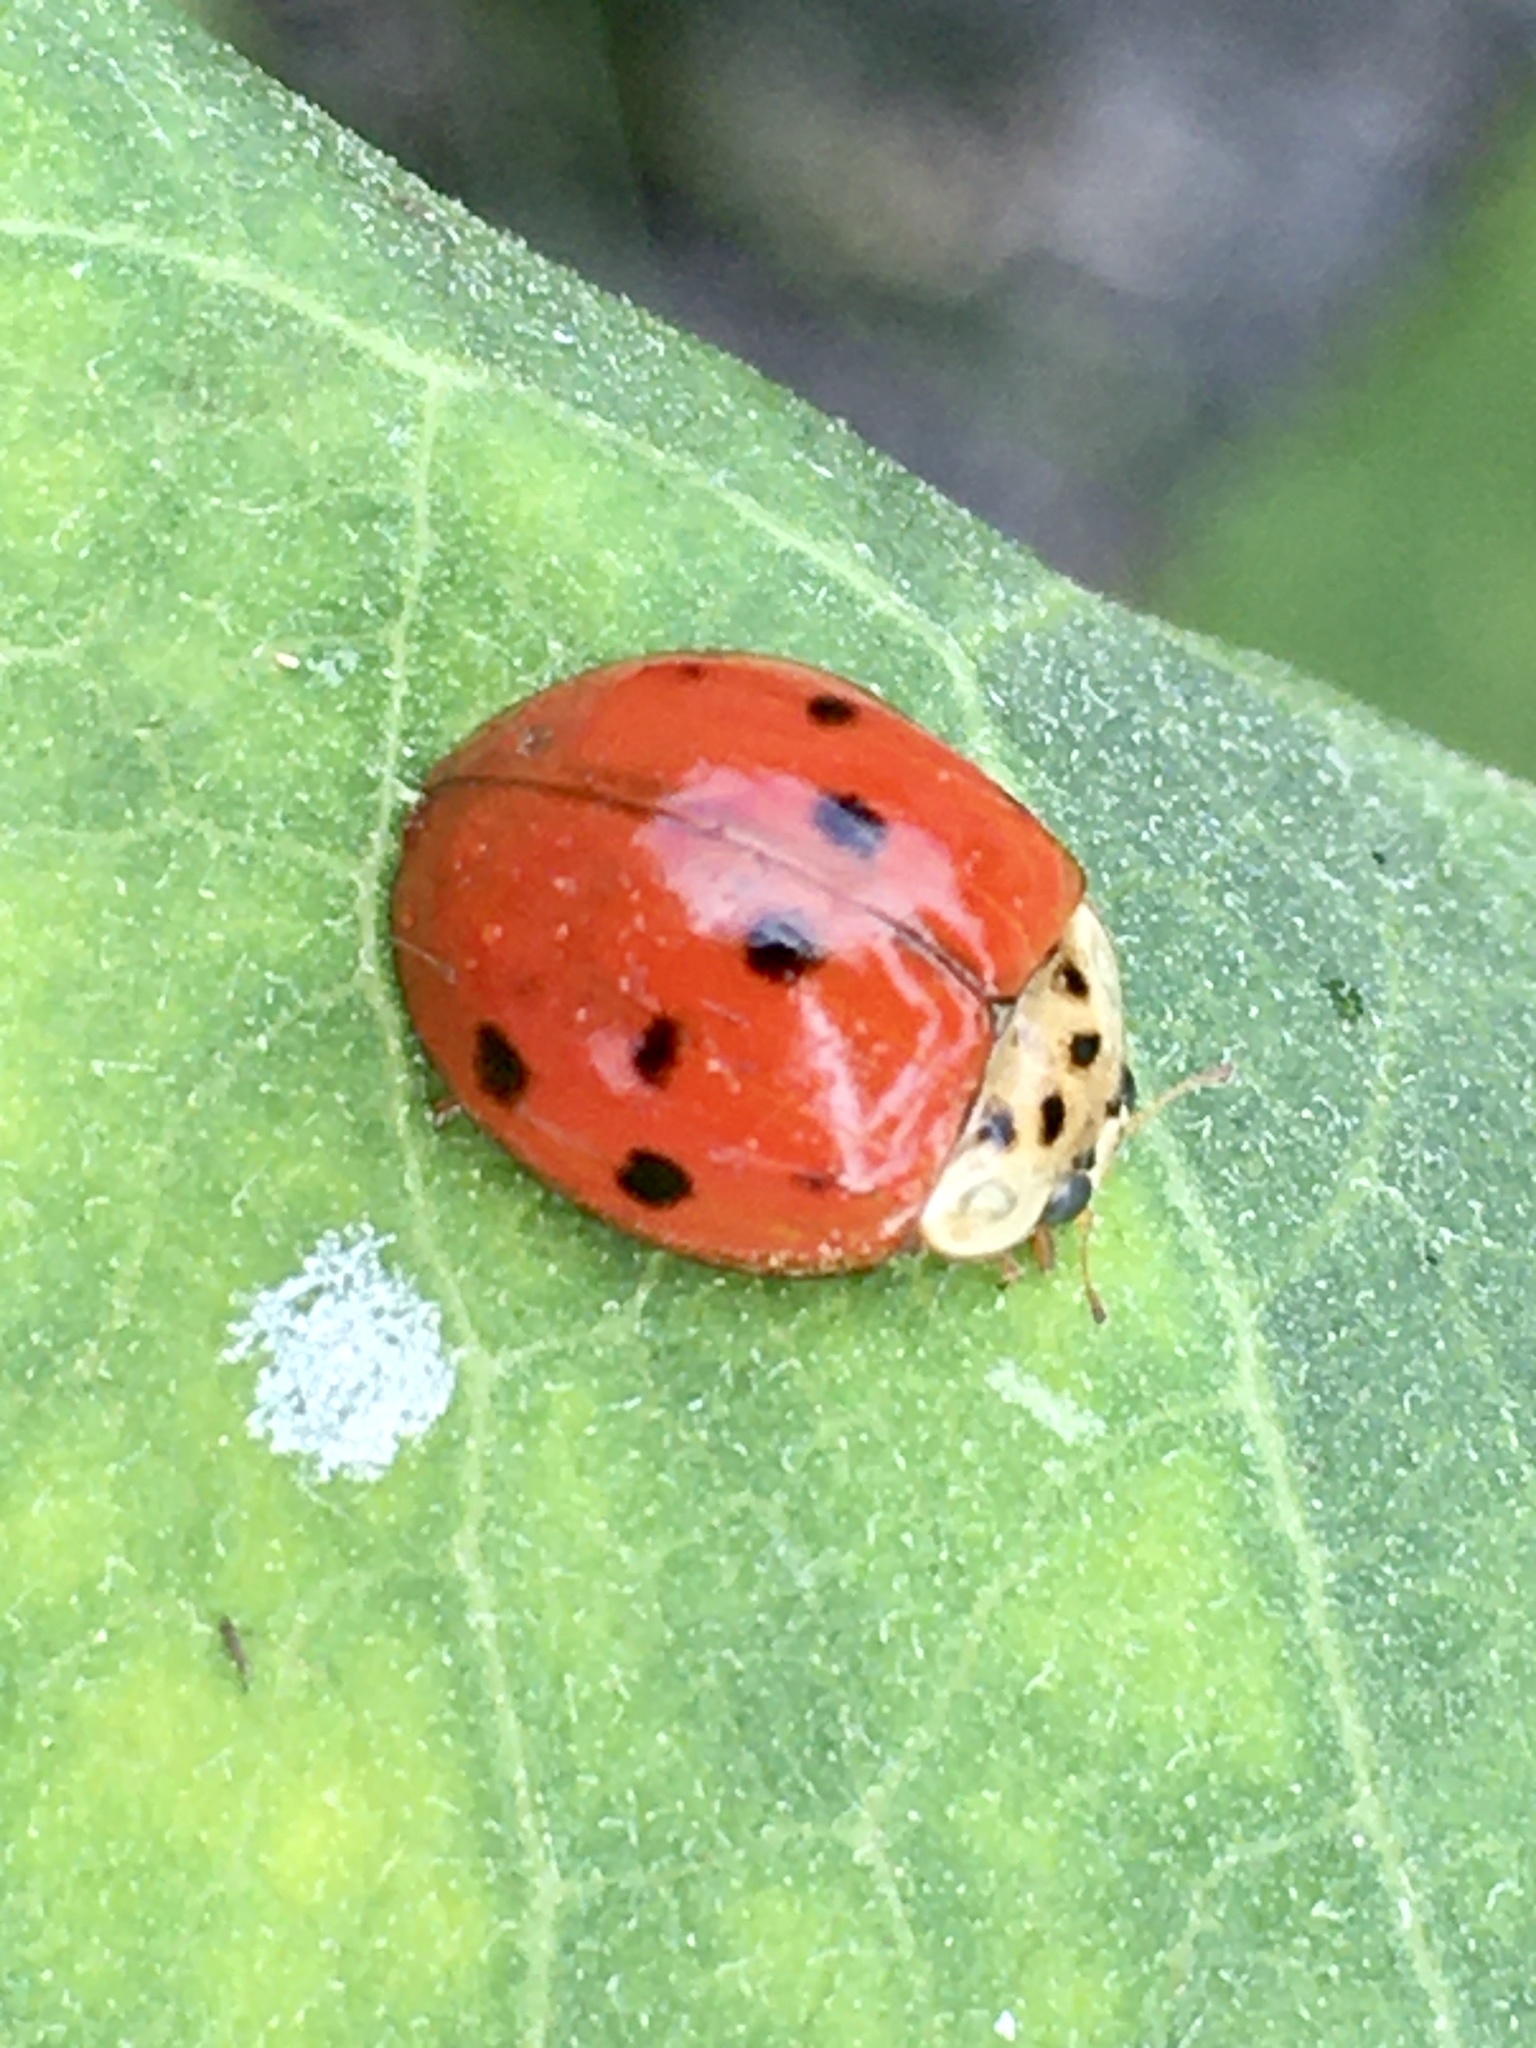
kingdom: Animalia
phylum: Arthropoda
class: Insecta
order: Coleoptera
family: Coccinellidae
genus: Harmonia
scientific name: Harmonia axyridis
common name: Harlequin ladybird
